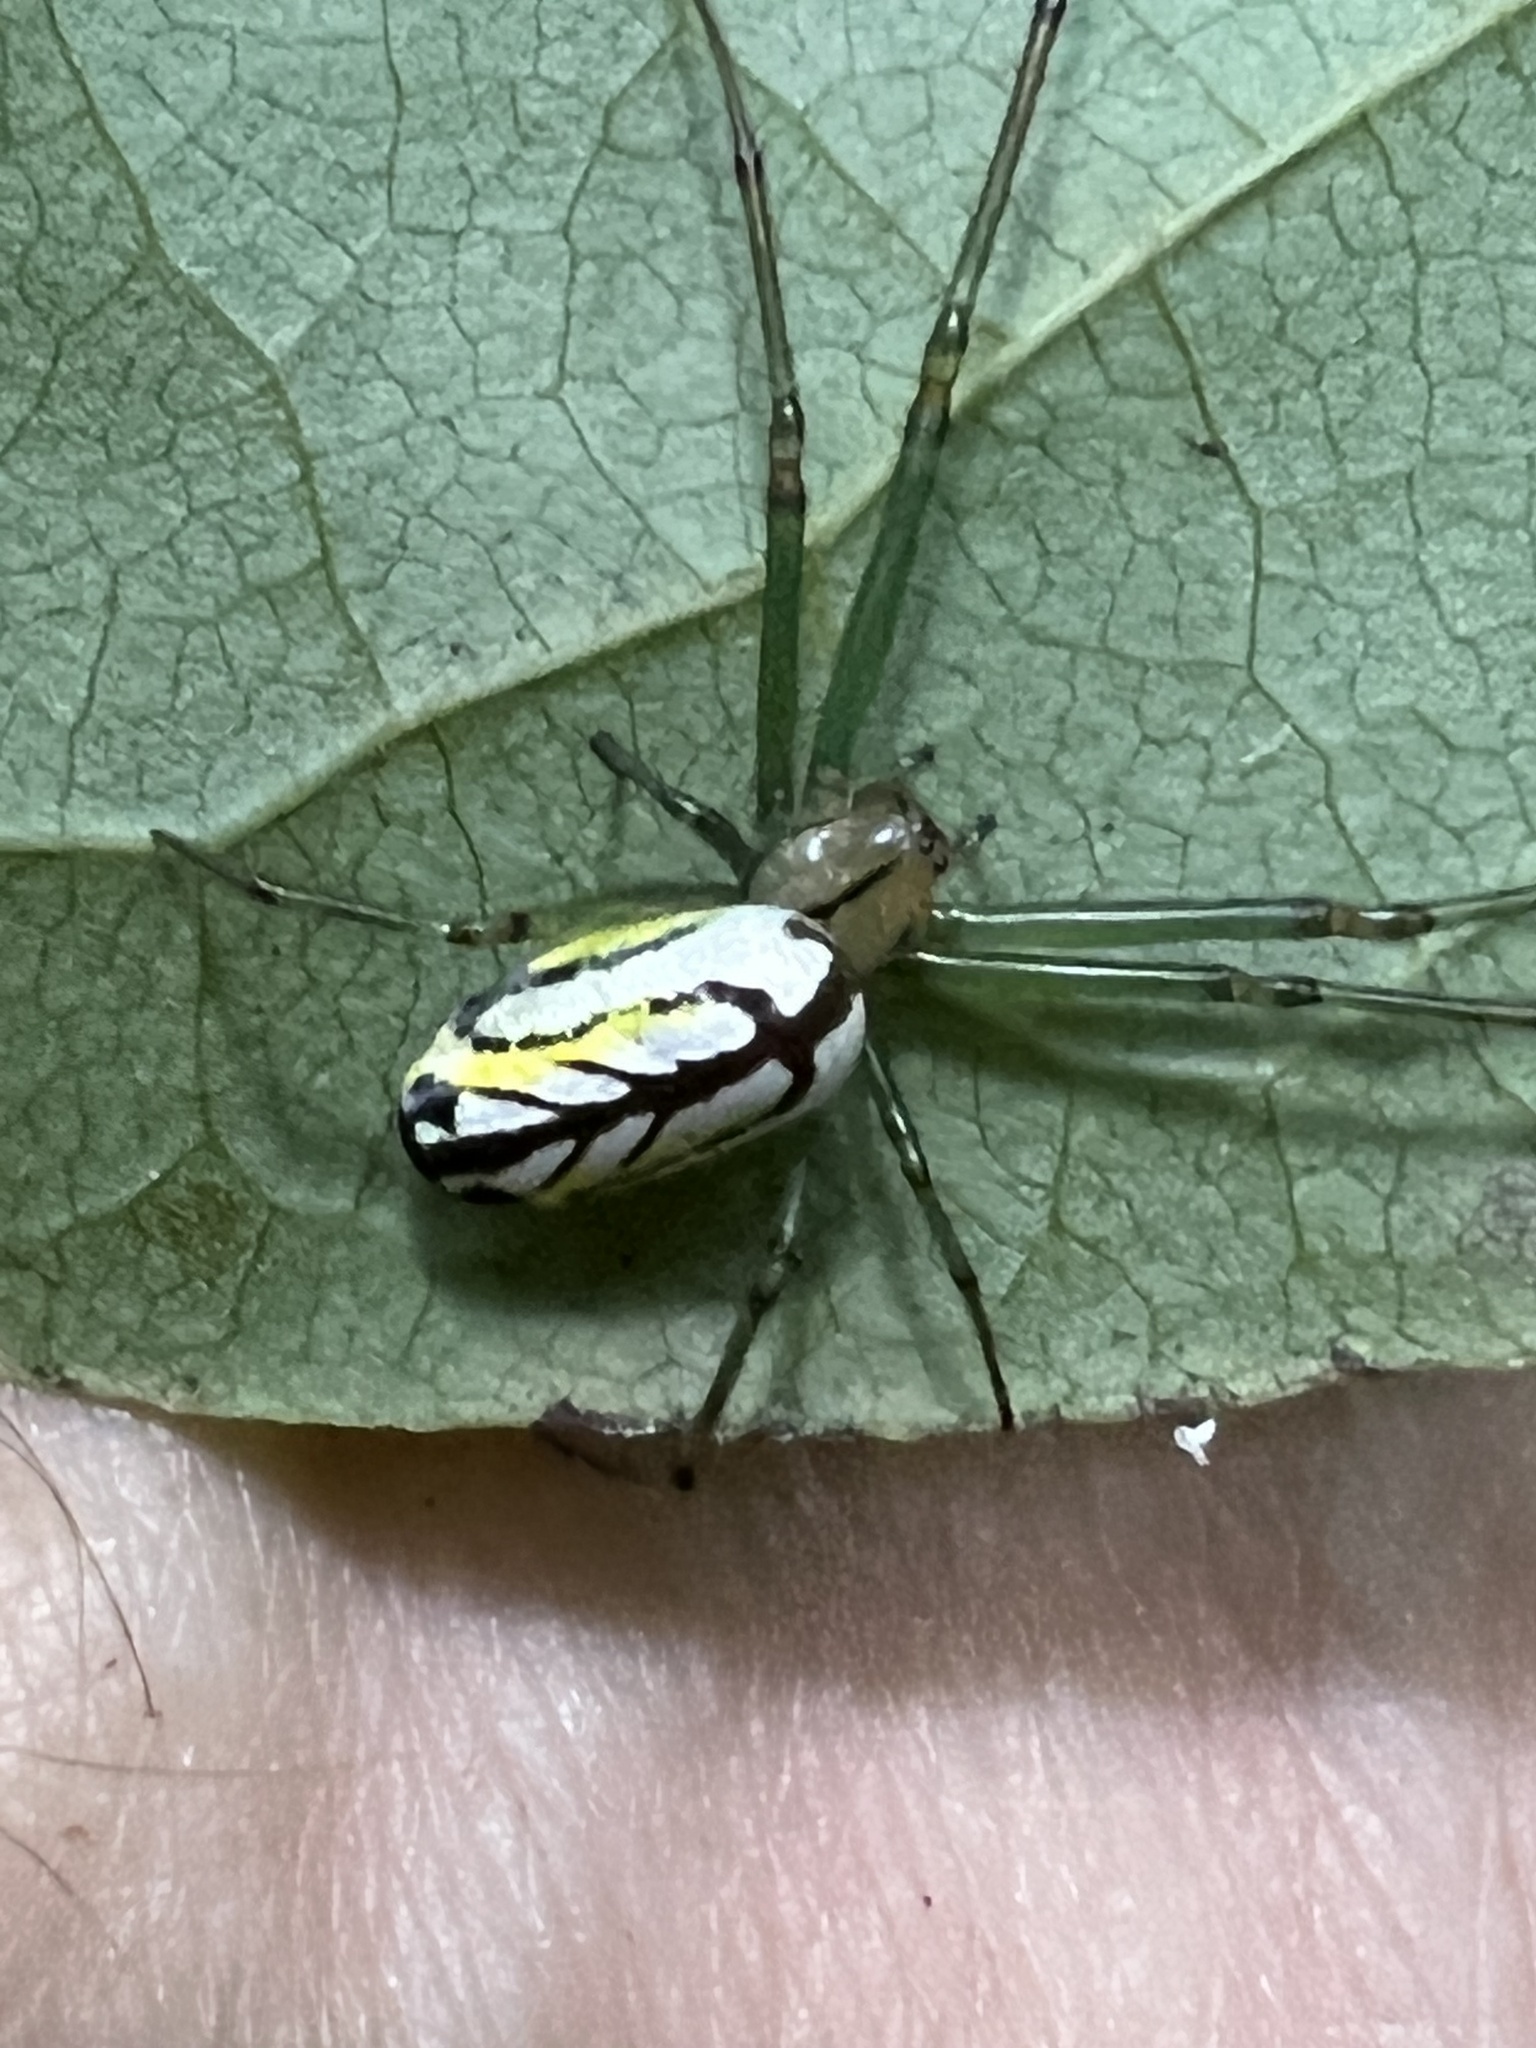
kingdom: Animalia
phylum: Arthropoda
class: Arachnida
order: Araneae
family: Tetragnathidae
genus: Leucauge
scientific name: Leucauge venusta
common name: Longjawed orb weavers
